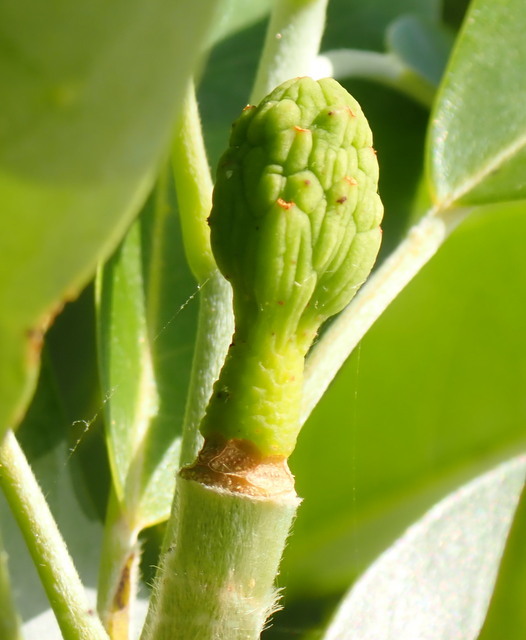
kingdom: Plantae
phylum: Tracheophyta
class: Magnoliopsida
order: Magnoliales
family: Magnoliaceae
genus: Magnolia
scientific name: Magnolia virginiana
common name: Swamp bay
